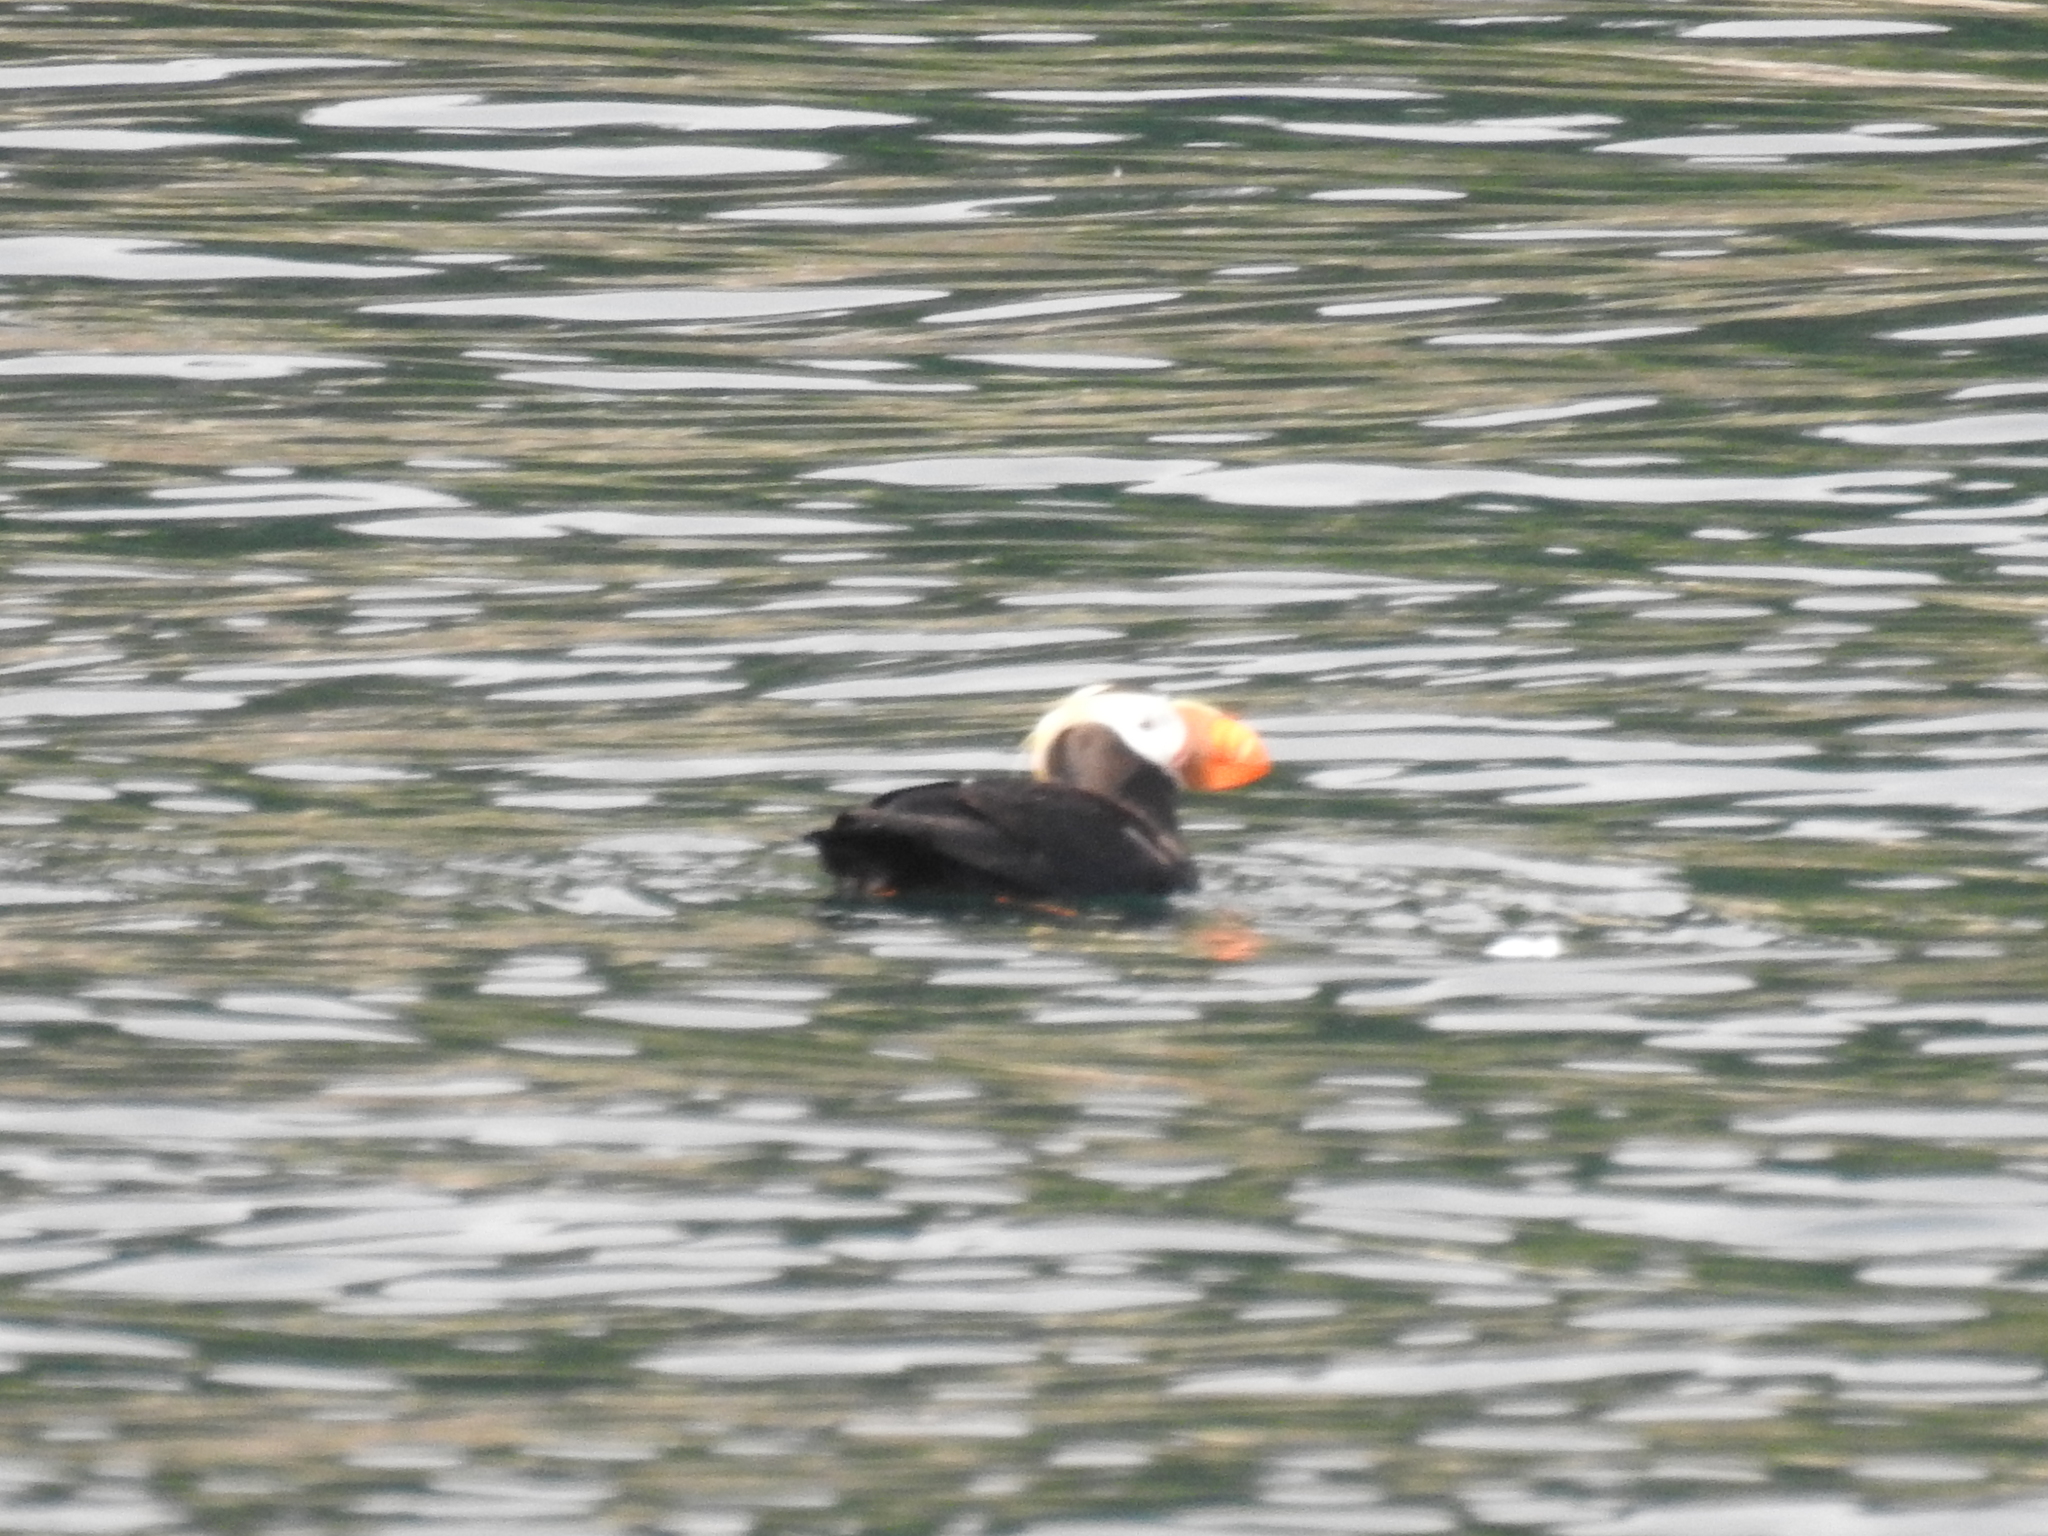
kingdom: Animalia
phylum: Chordata
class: Aves
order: Charadriiformes
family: Alcidae
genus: Fratercula
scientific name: Fratercula cirrhata
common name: Tufted puffin
